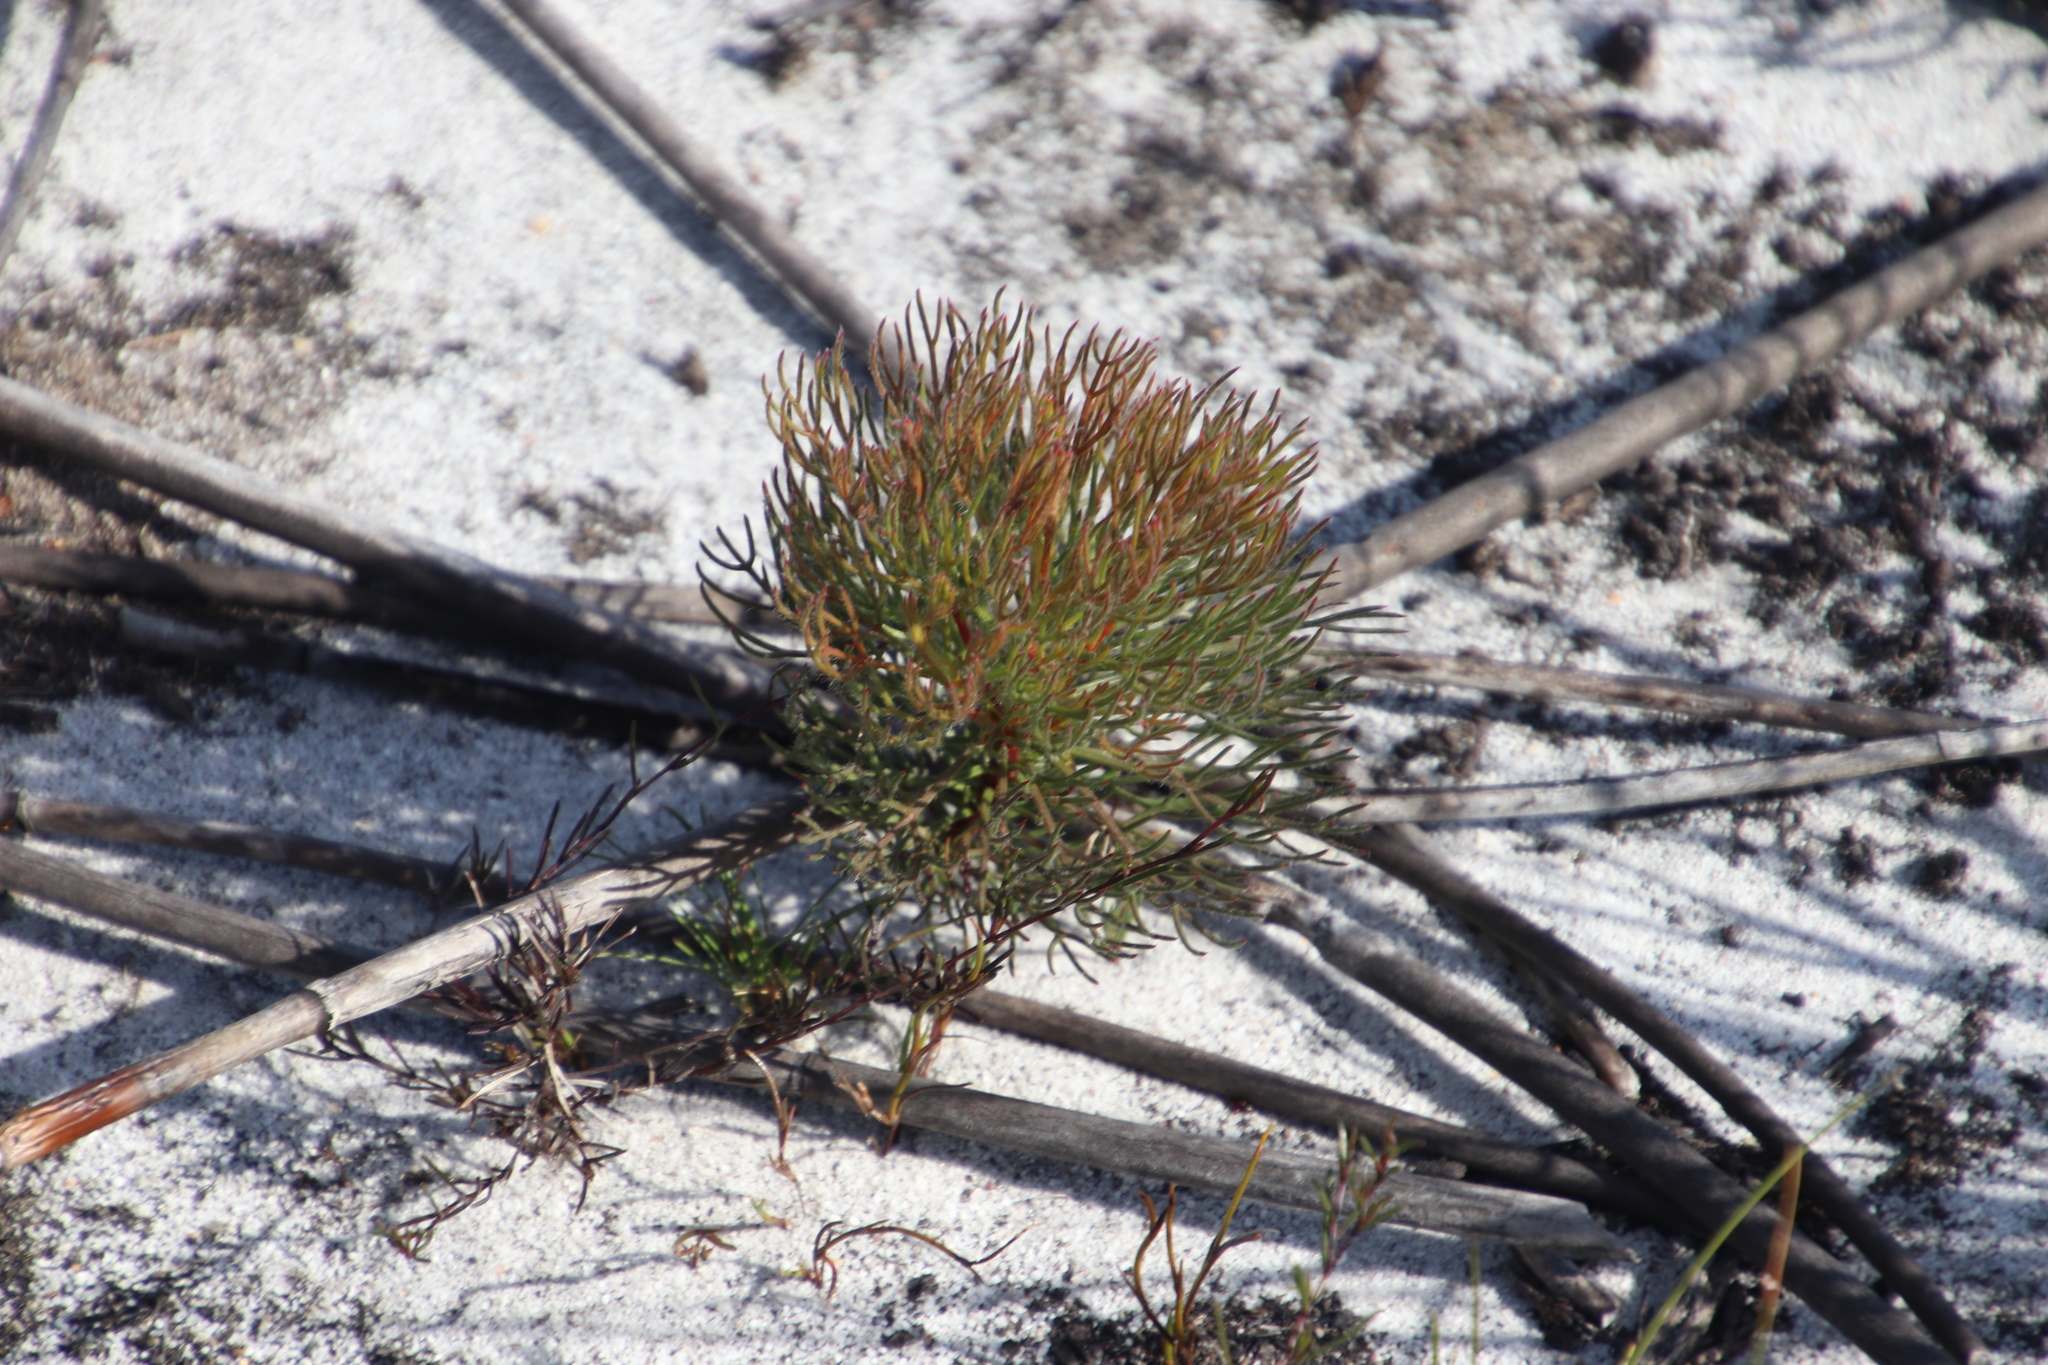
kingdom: Plantae
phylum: Tracheophyta
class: Magnoliopsida
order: Proteales
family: Proteaceae
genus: Serruria
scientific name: Serruria glomerata
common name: Cluster spiderhead
